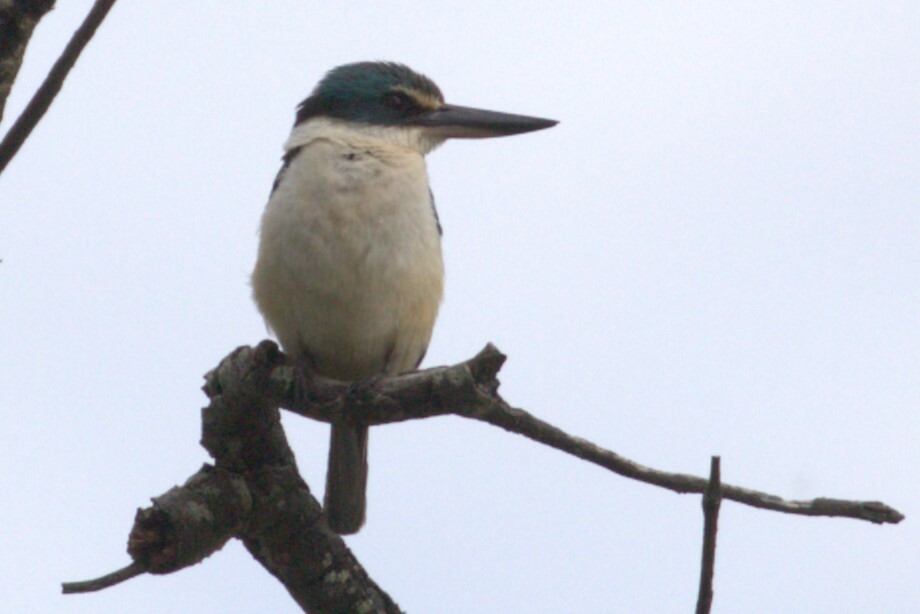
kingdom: Animalia
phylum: Chordata
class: Aves
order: Coraciiformes
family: Alcedinidae
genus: Todiramphus
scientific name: Todiramphus sanctus
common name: Sacred kingfisher
